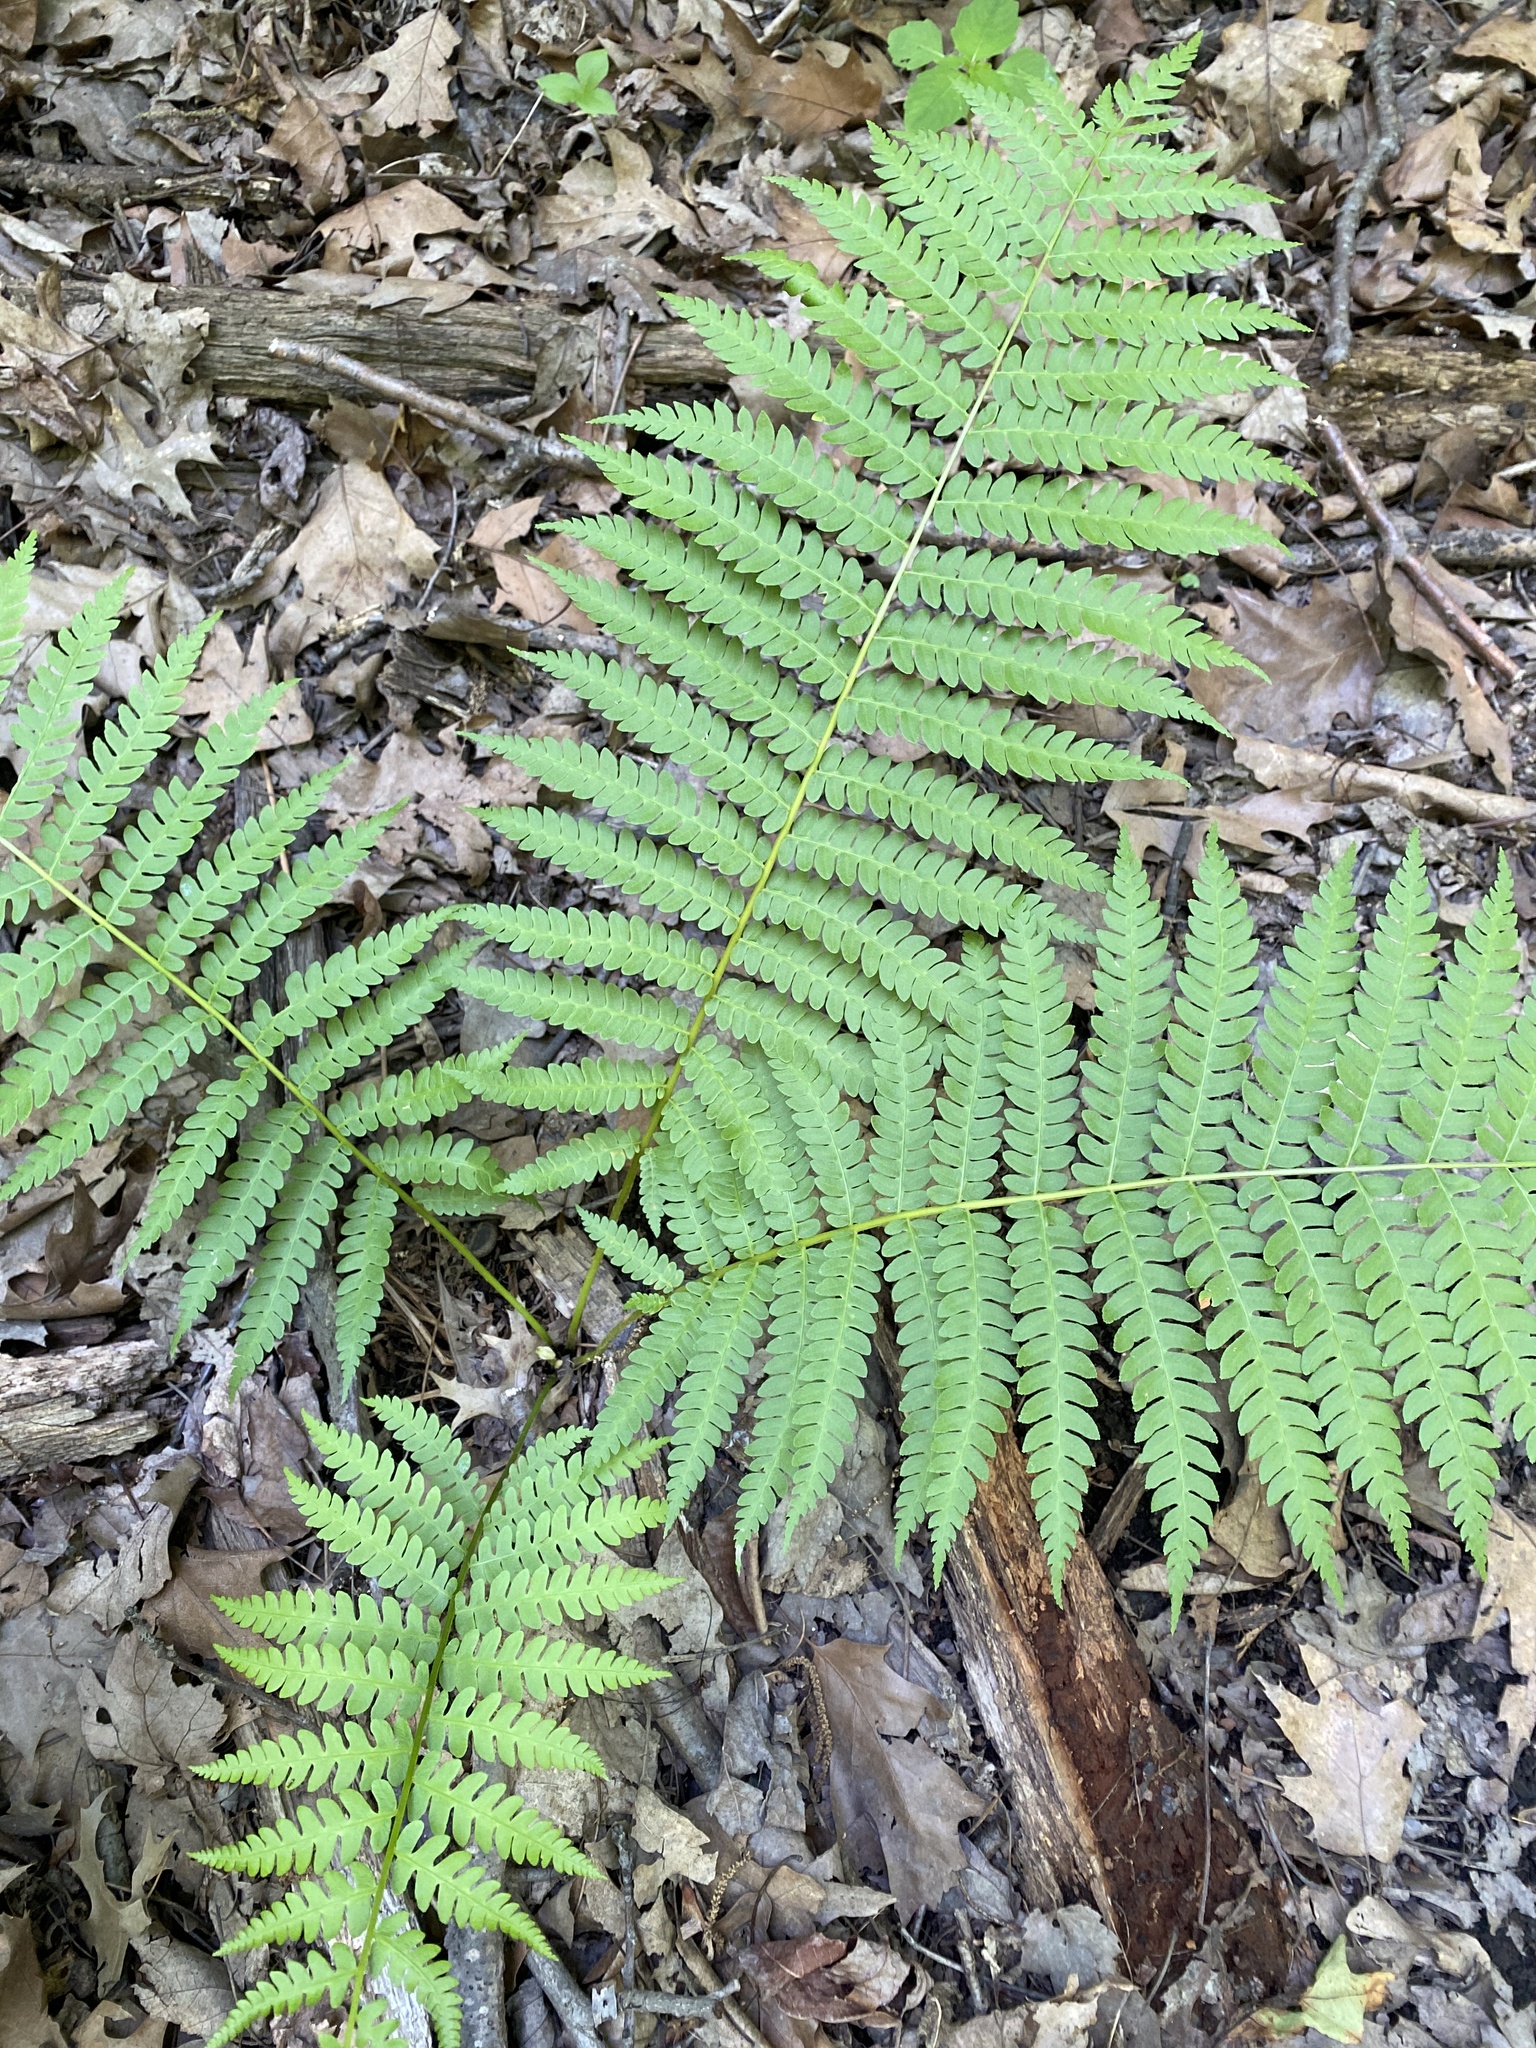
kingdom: Plantae
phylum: Tracheophyta
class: Polypodiopsida
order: Osmundales
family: Osmundaceae
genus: Osmundastrum
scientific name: Osmundastrum cinnamomeum
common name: Cinnamon fern
